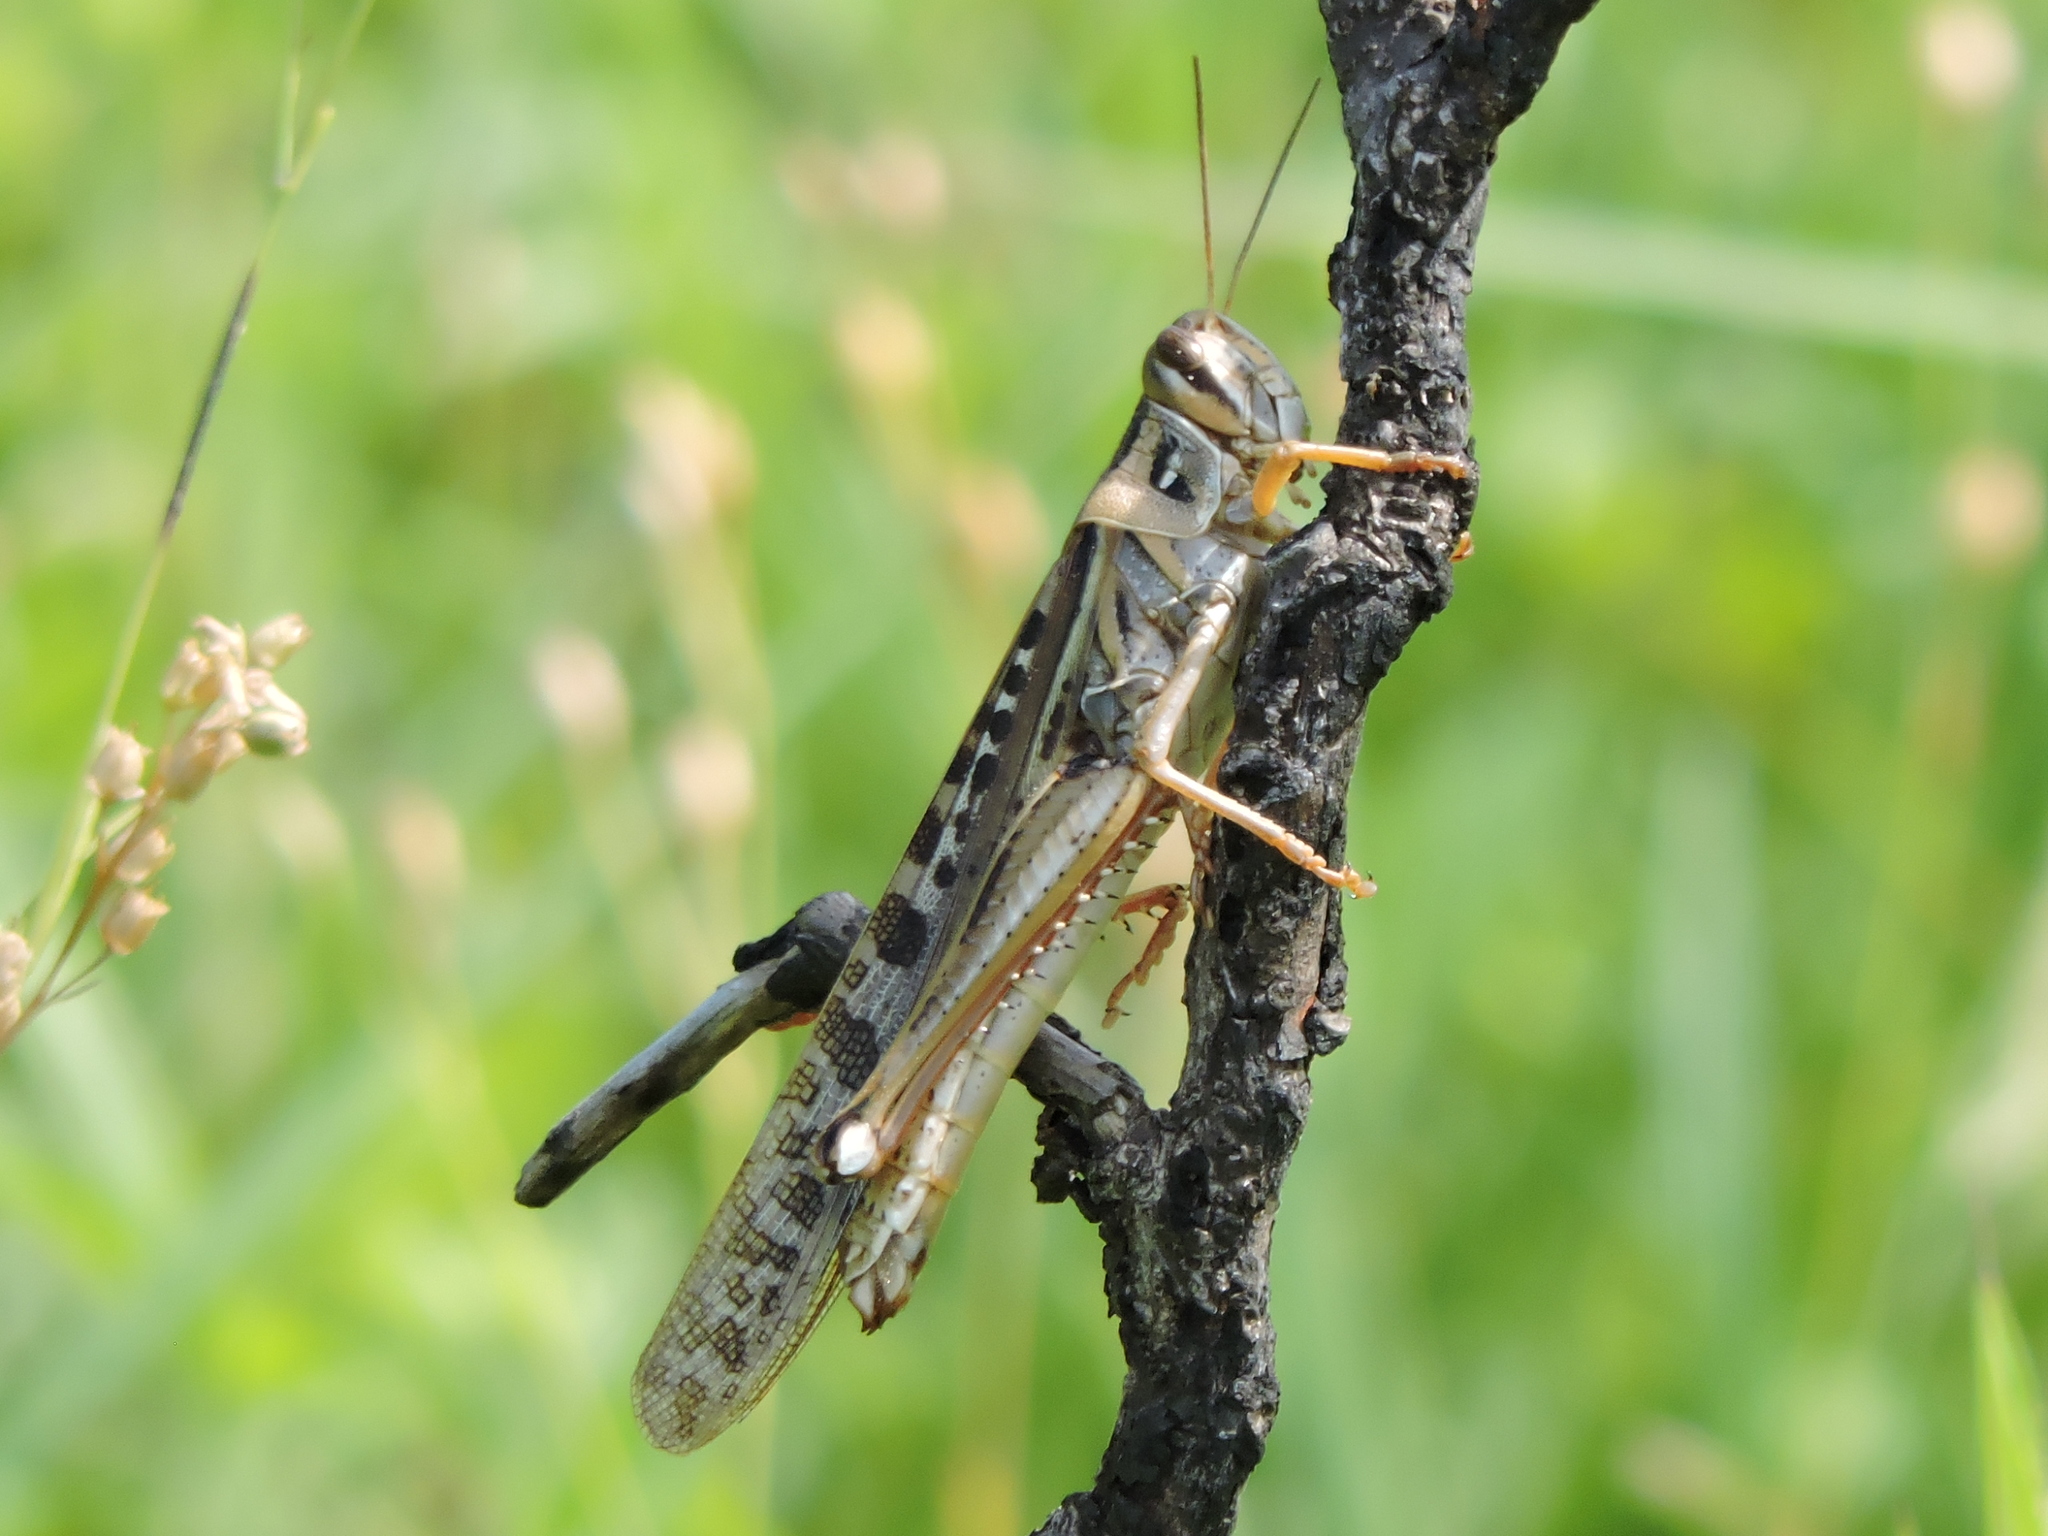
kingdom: Animalia
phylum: Arthropoda
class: Insecta
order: Orthoptera
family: Acrididae
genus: Schistocerca
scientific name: Schistocerca americana
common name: American bird locust
